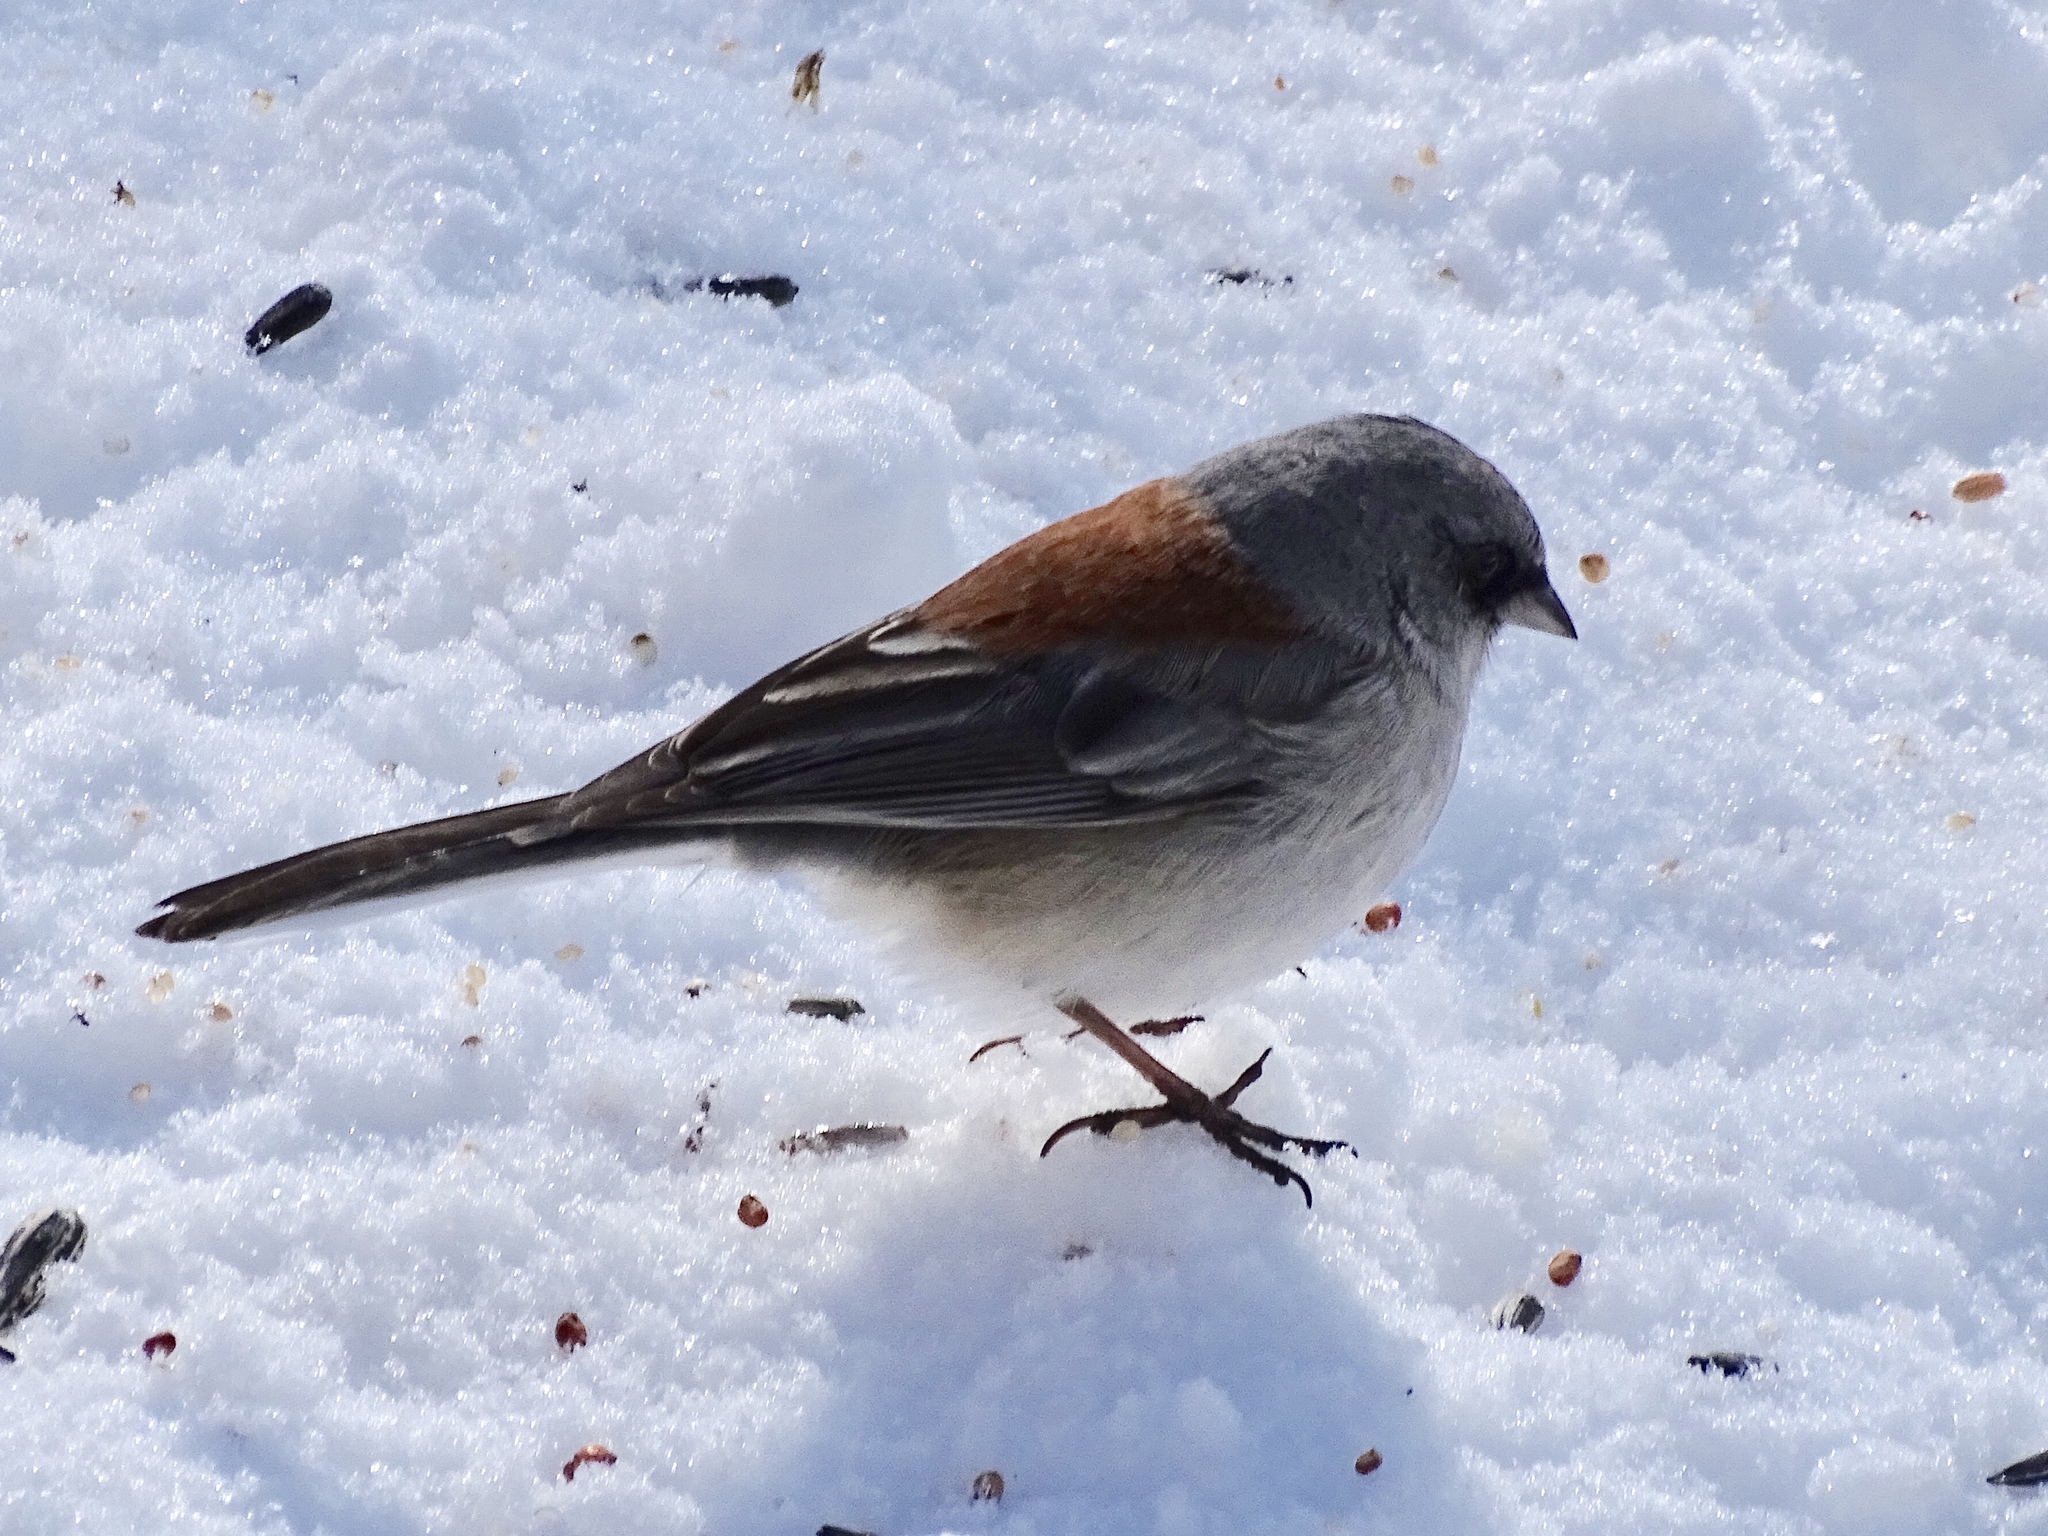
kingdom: Animalia
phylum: Chordata
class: Aves
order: Passeriformes
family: Passerellidae
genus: Junco
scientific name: Junco hyemalis
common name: Dark-eyed junco
